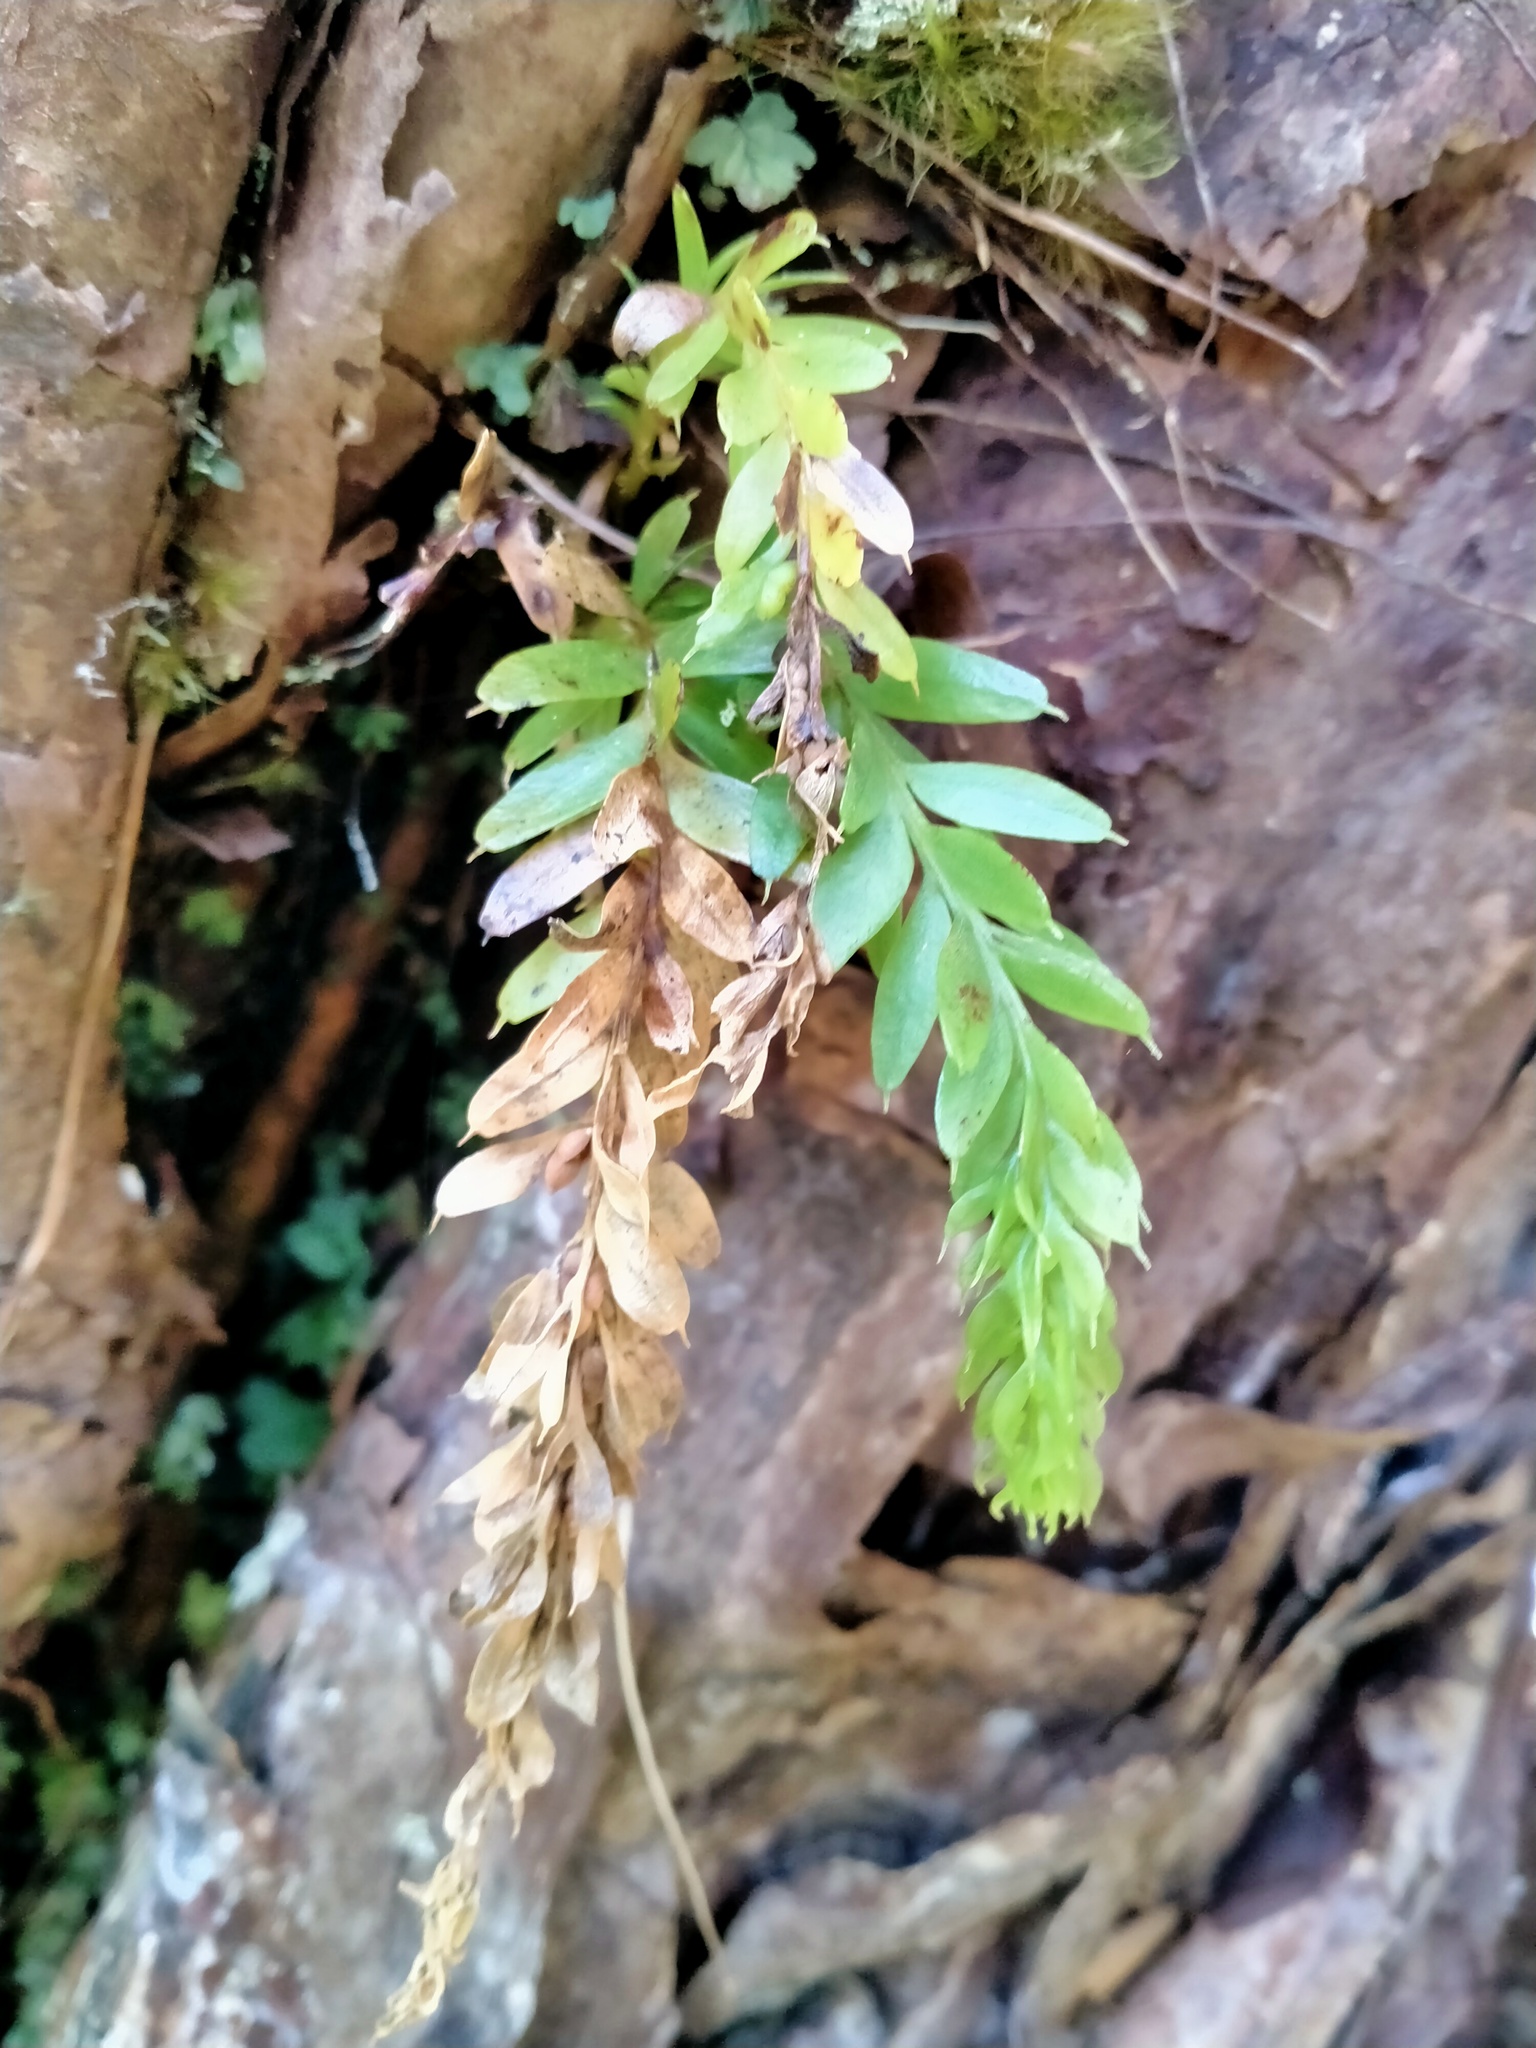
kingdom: Plantae
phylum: Tracheophyta
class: Polypodiopsida
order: Psilotales
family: Psilotaceae
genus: Tmesipteris
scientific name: Tmesipteris tannensis
